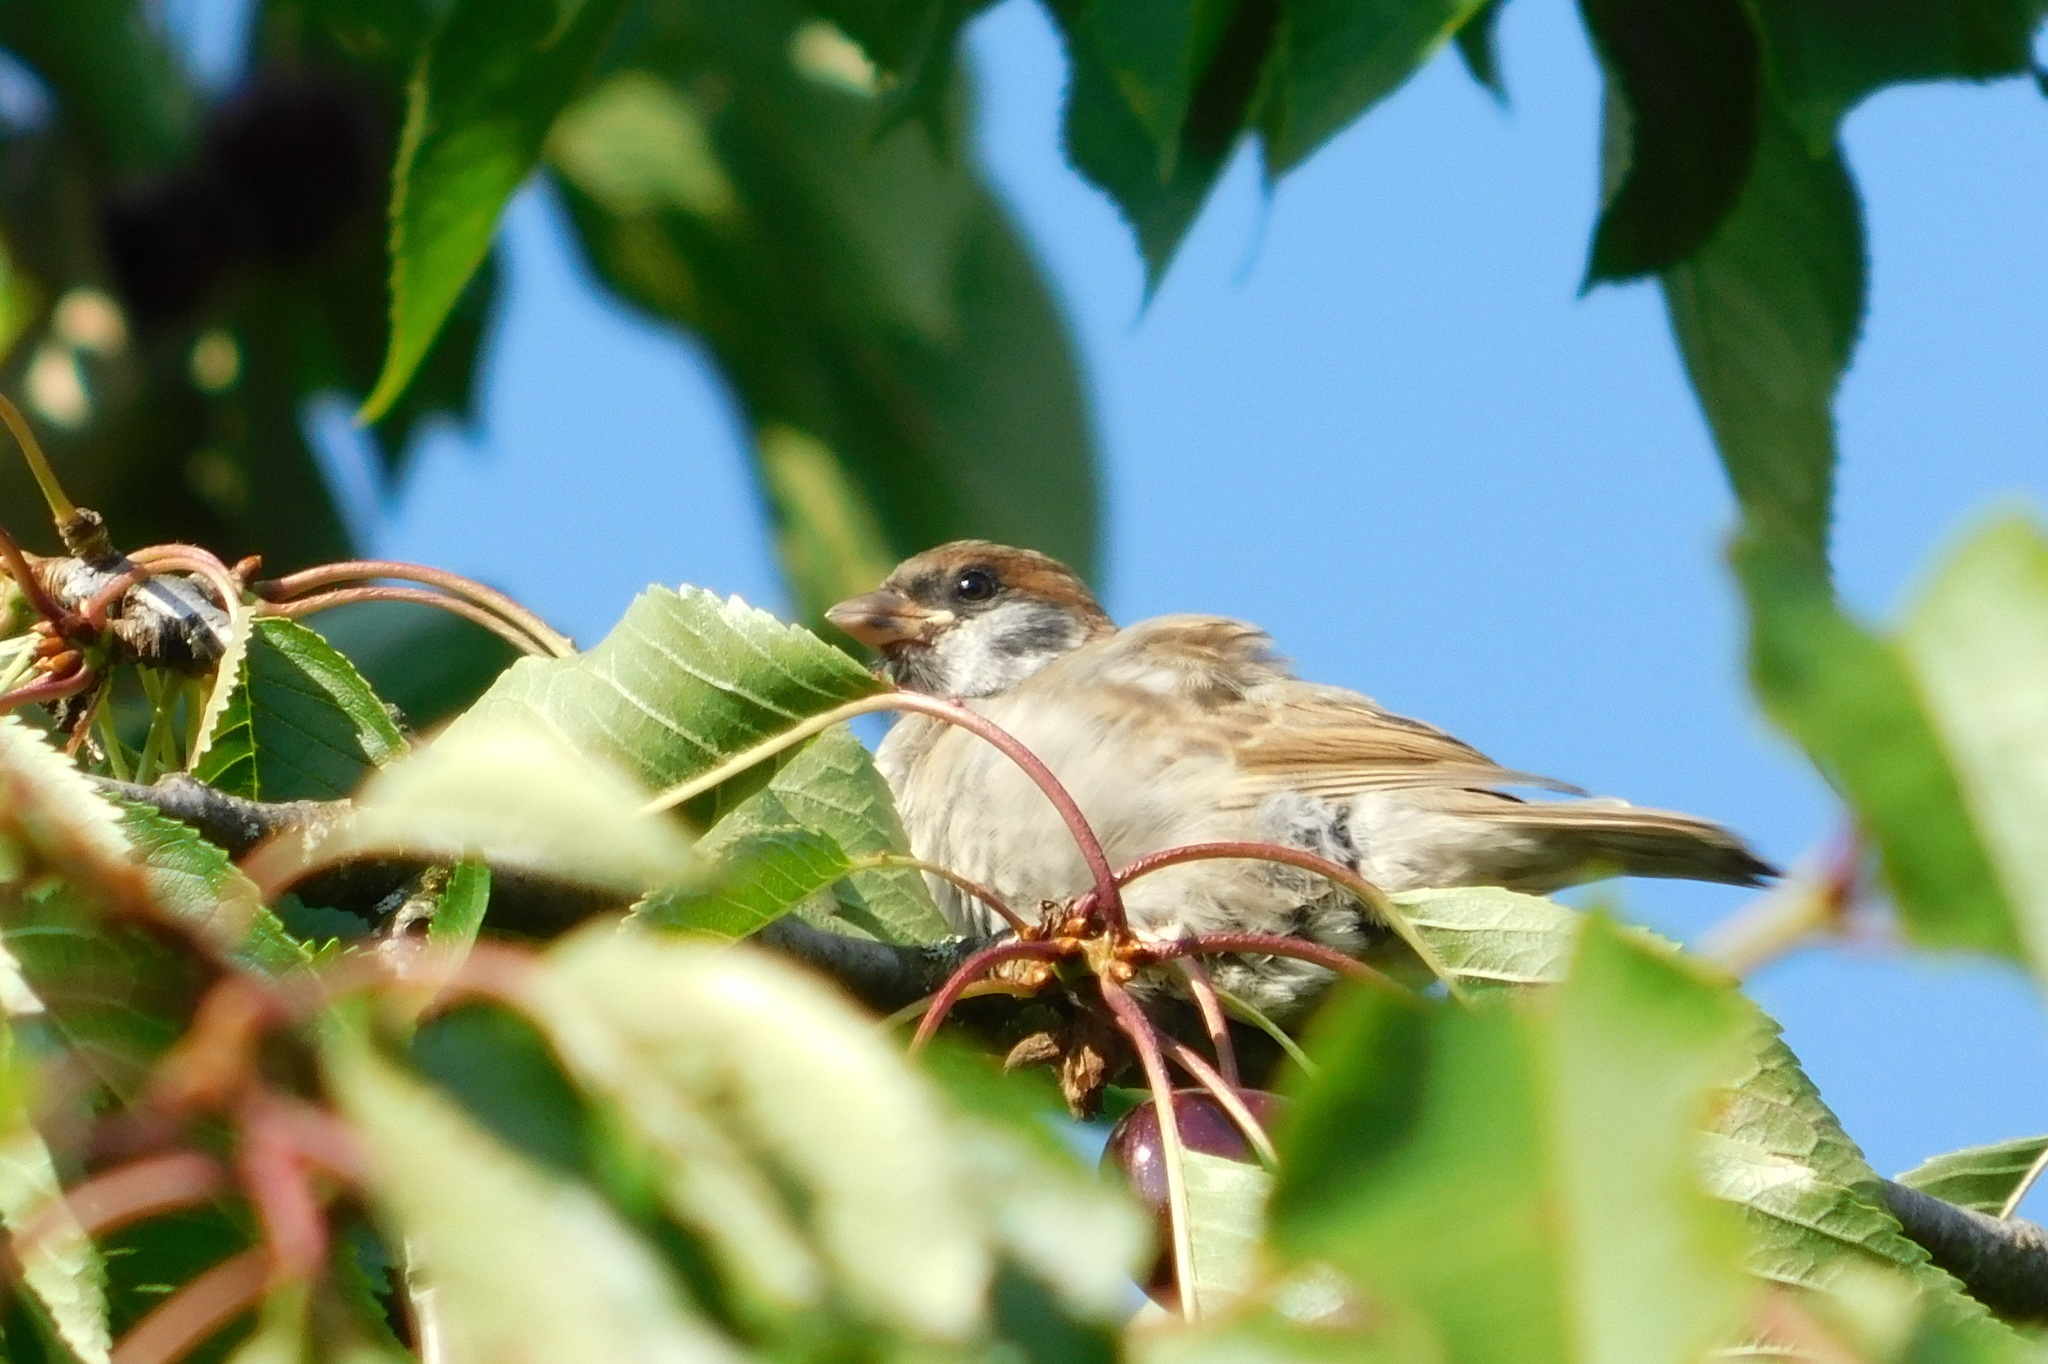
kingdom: Animalia
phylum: Chordata
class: Aves
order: Passeriformes
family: Passeridae
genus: Passer
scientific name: Passer montanus
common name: Eurasian tree sparrow
